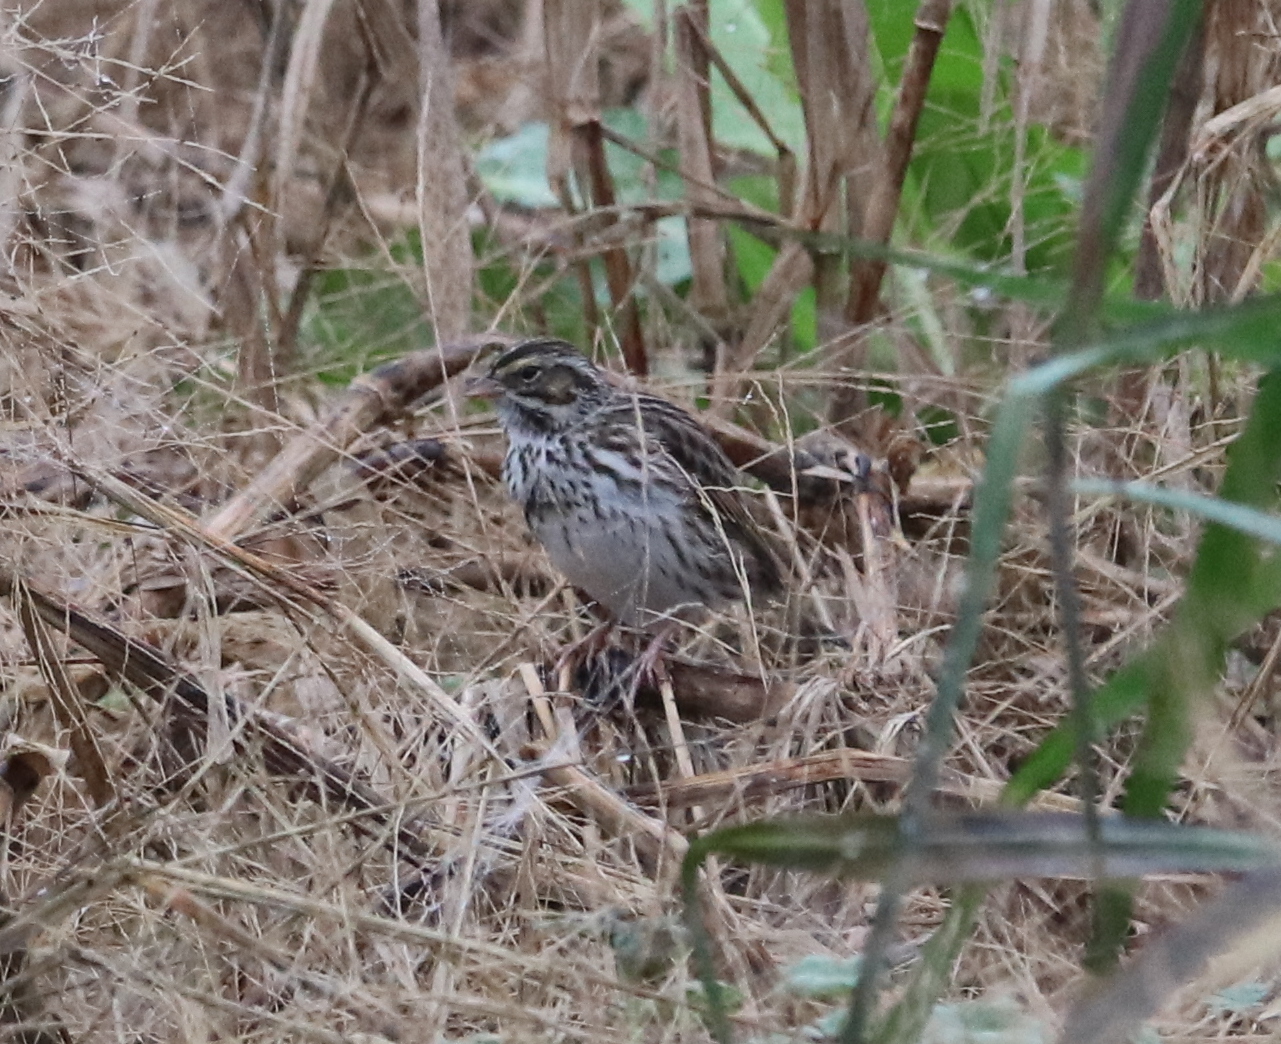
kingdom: Animalia
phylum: Chordata
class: Aves
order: Passeriformes
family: Passerellidae
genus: Passerculus
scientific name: Passerculus sandwichensis
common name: Savannah sparrow
